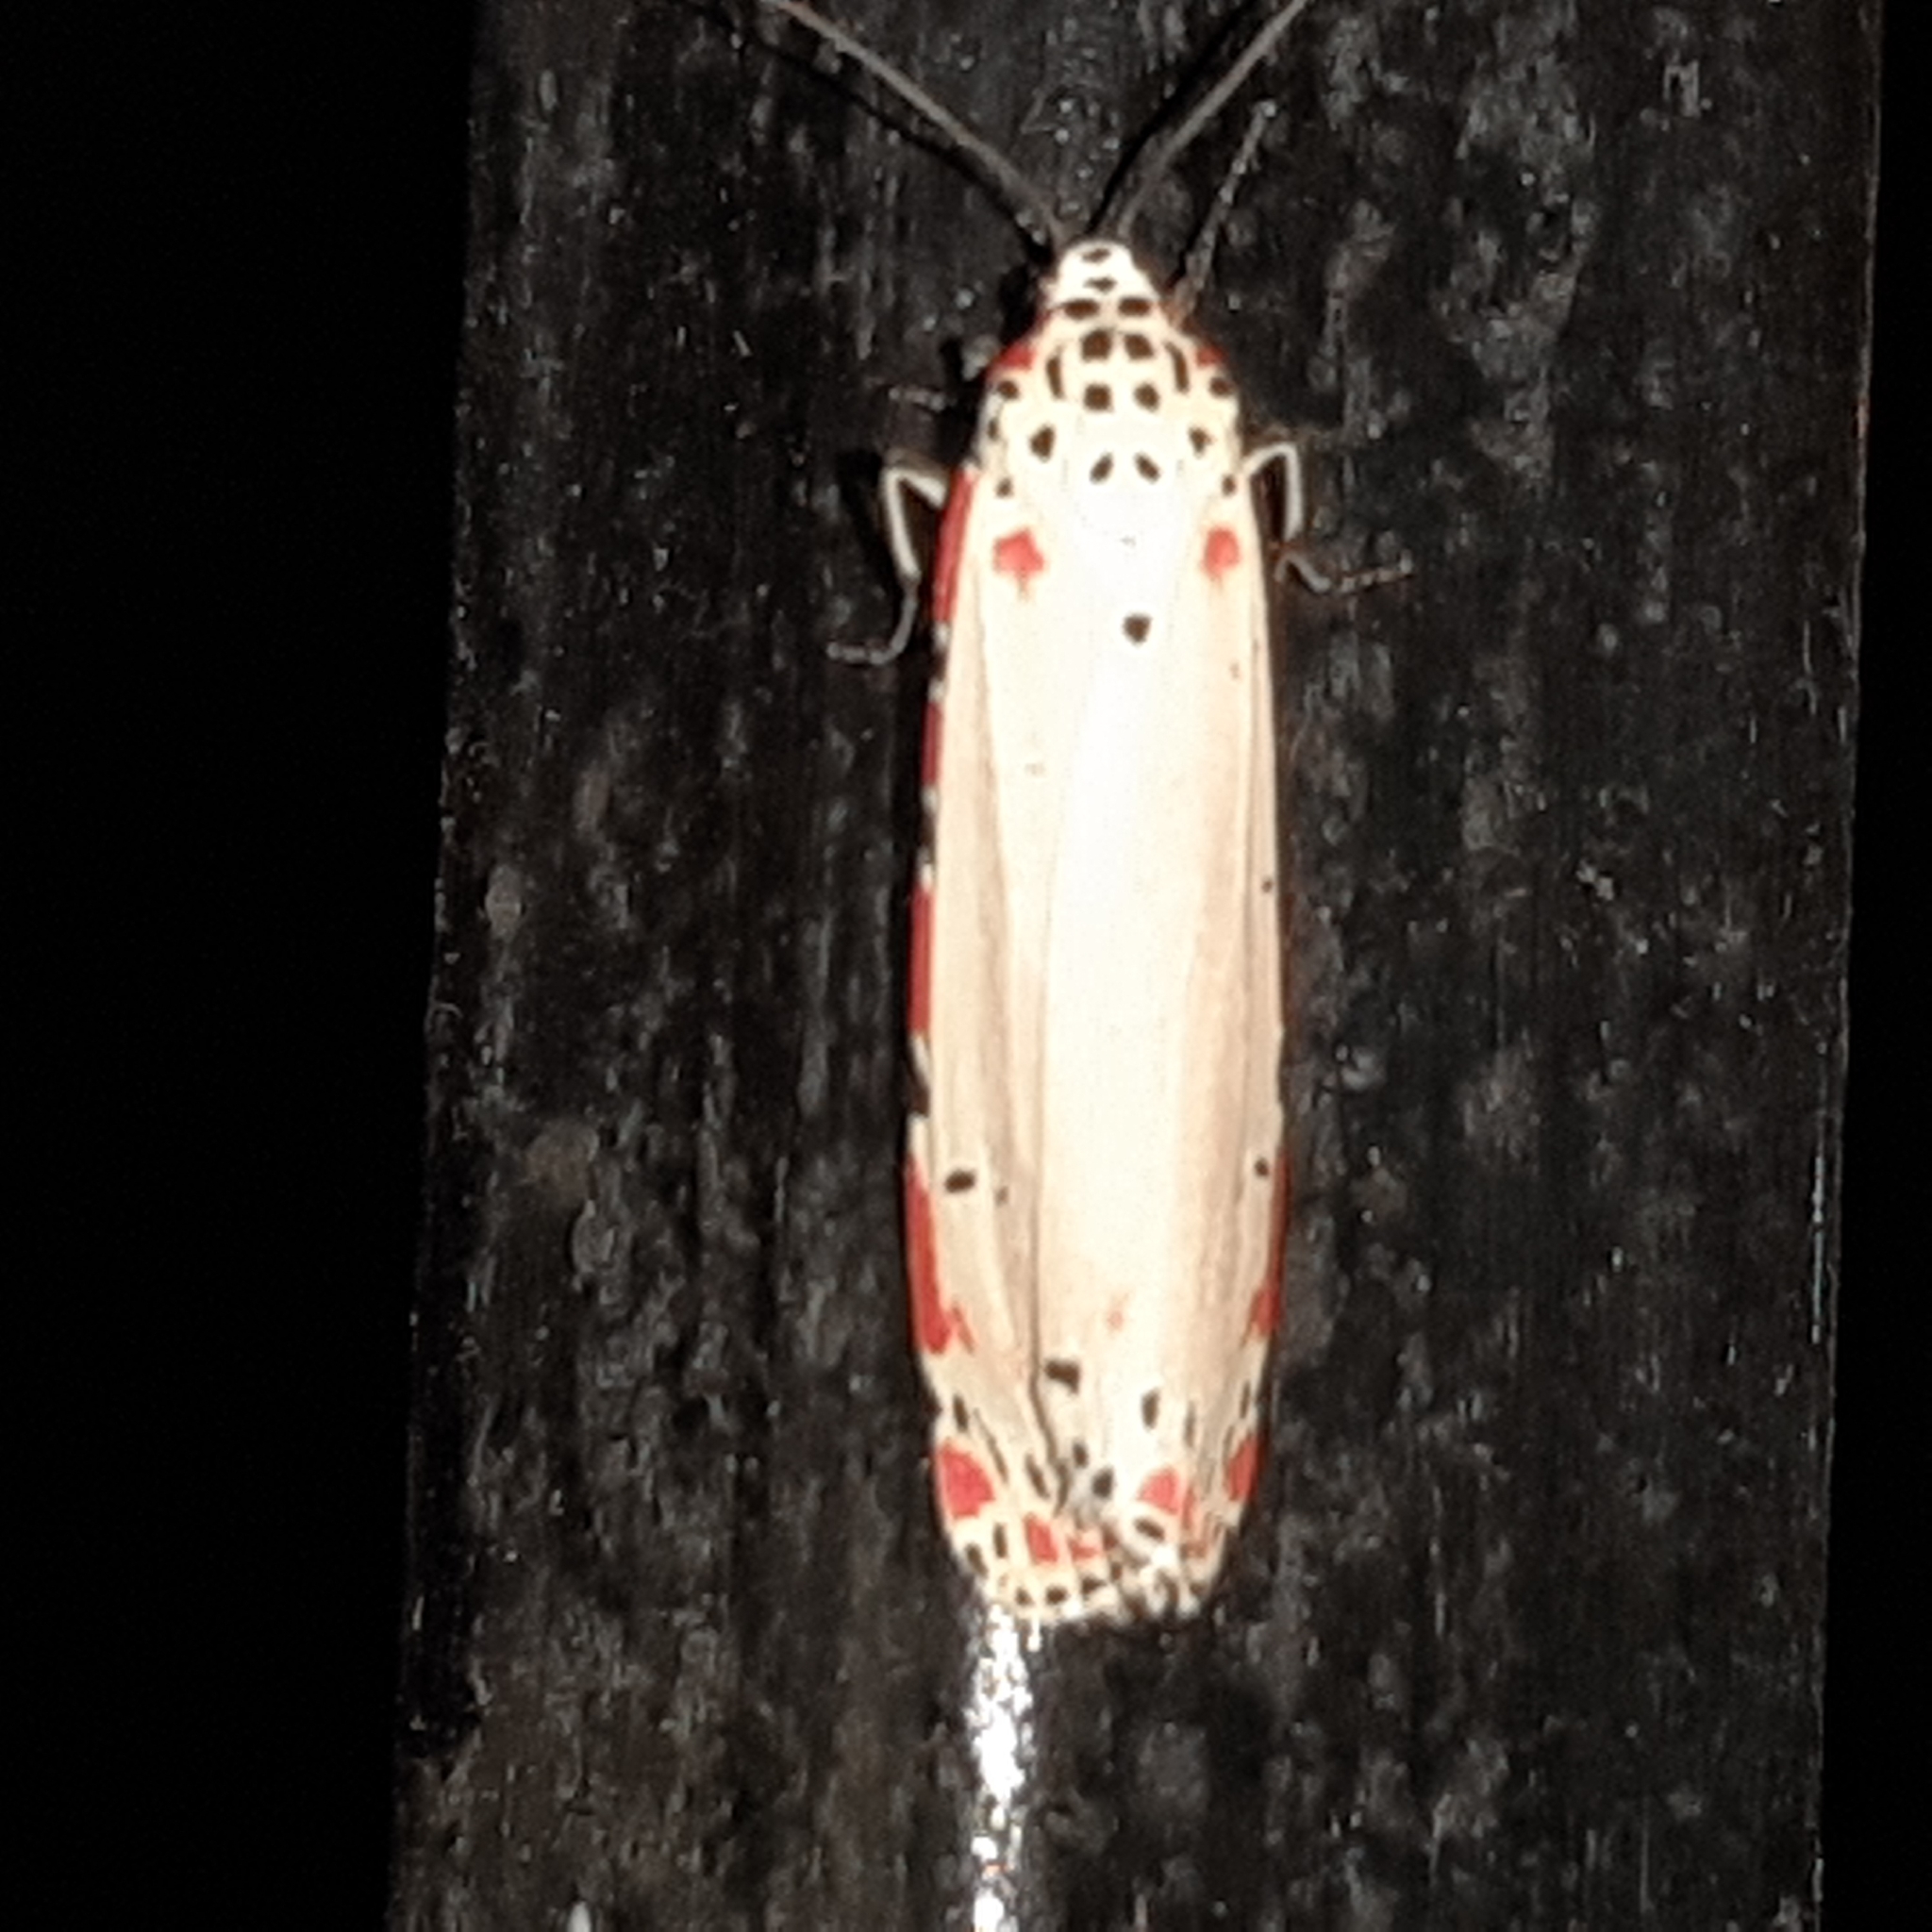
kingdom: Animalia
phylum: Arthropoda
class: Insecta
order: Lepidoptera
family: Erebidae
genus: Utetheisa
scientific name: Utetheisa ornatrix
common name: Beautiful utetheisa
